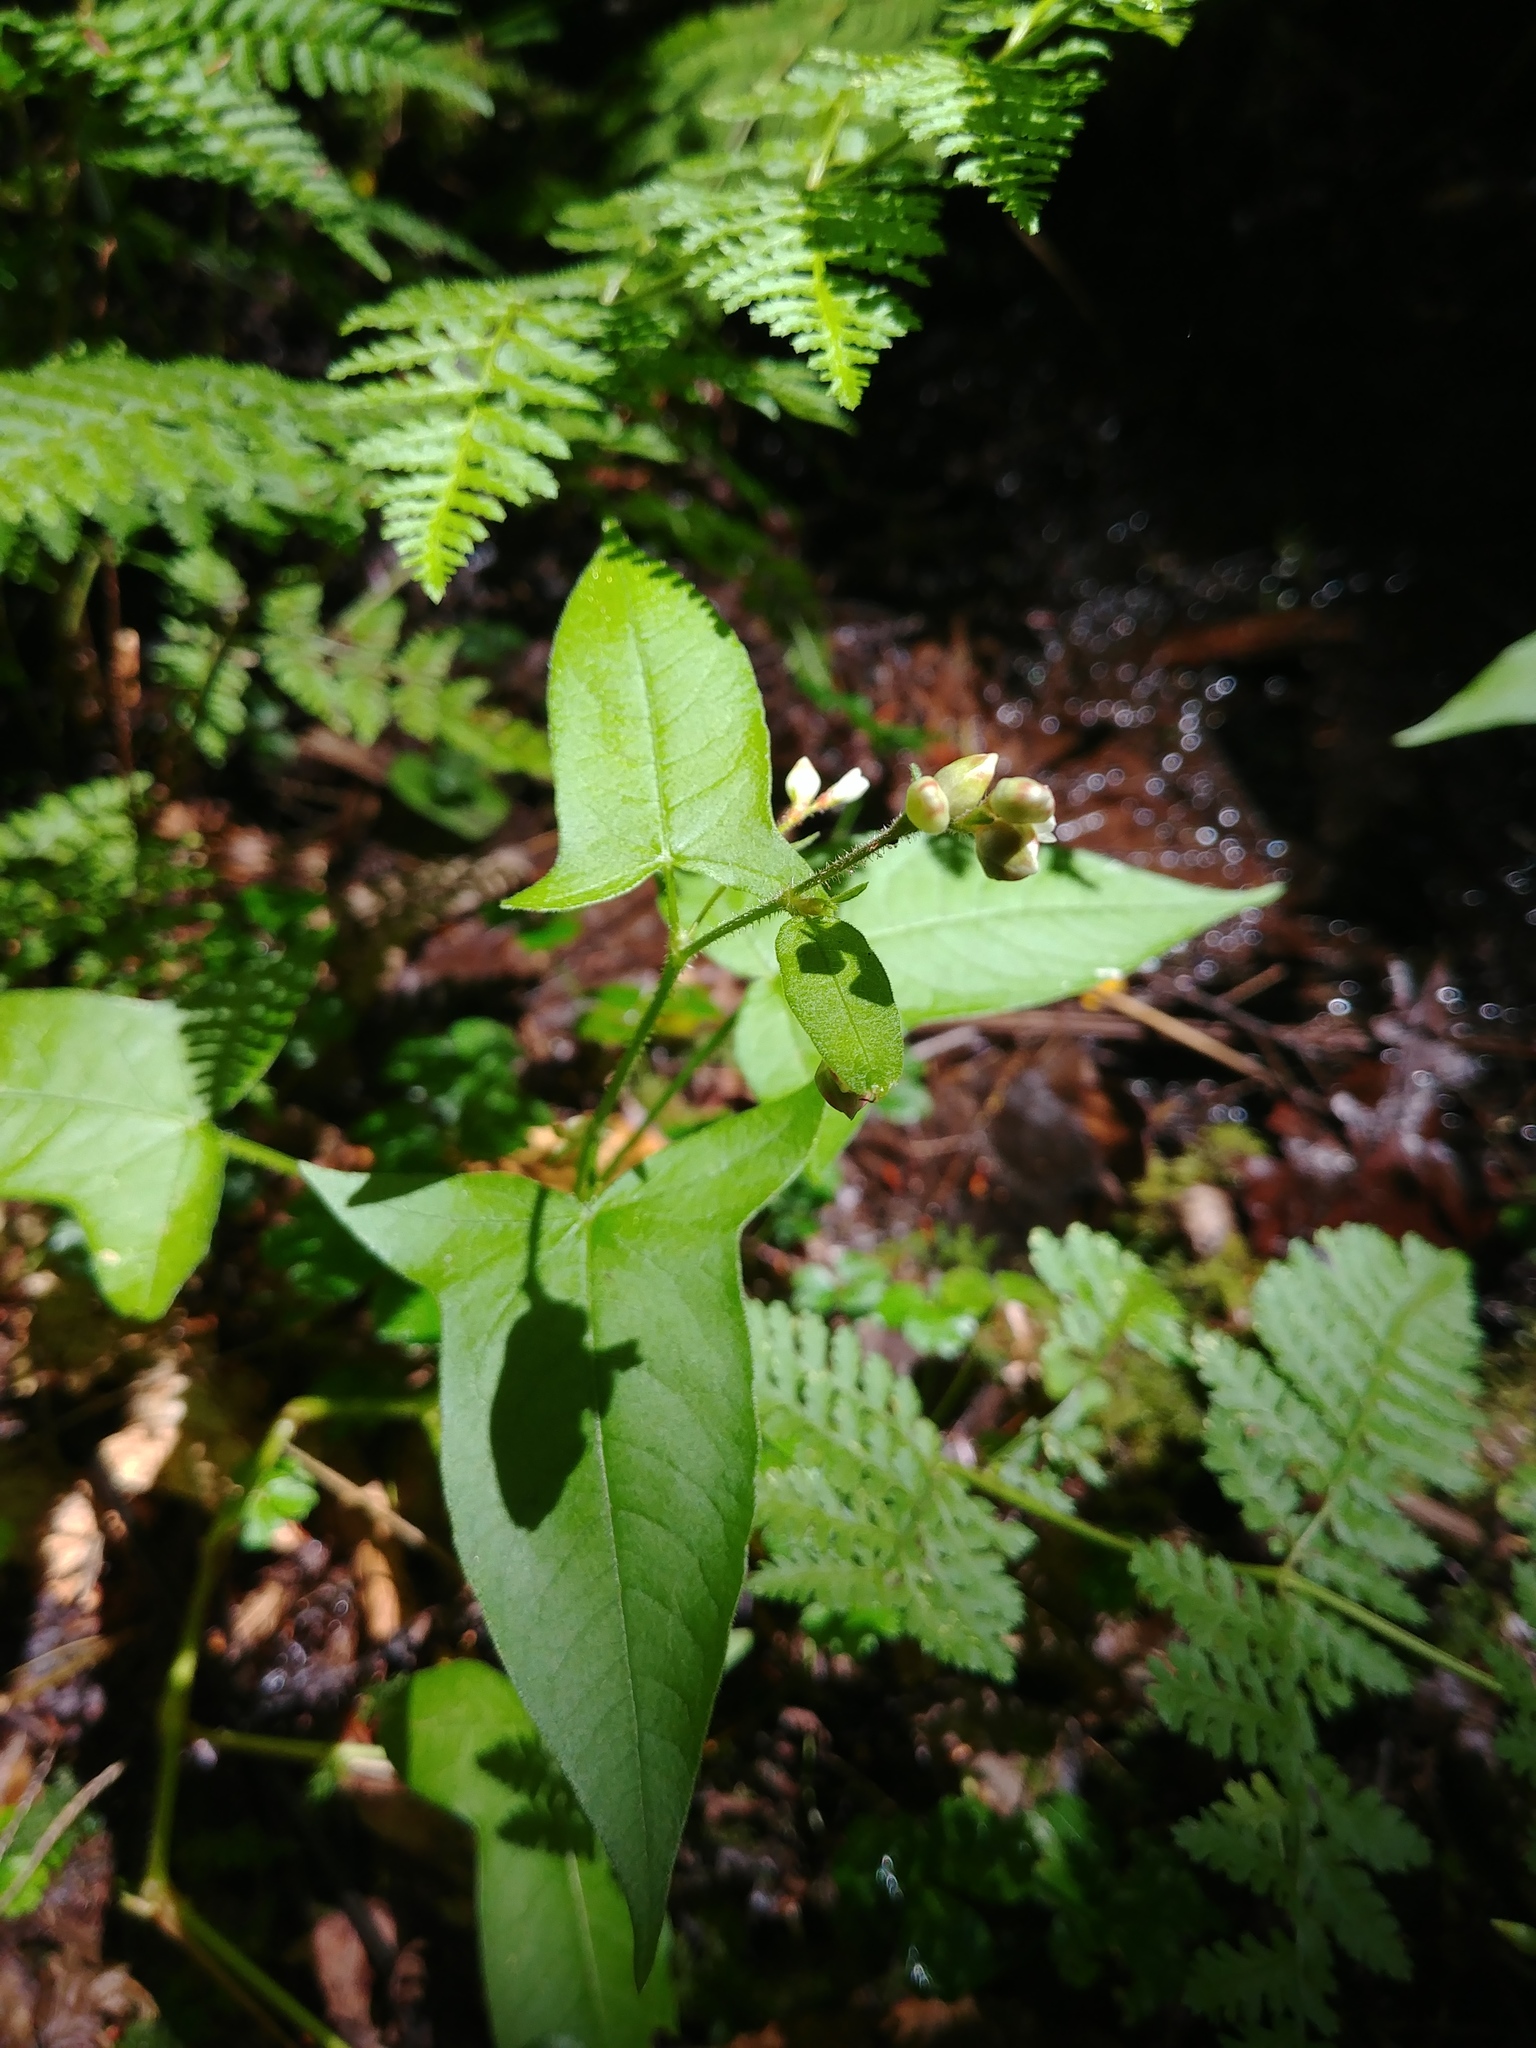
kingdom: Plantae
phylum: Tracheophyta
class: Magnoliopsida
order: Caryophyllales
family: Polygonaceae
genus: Persicaria
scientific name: Persicaria arifolia
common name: Halberd-leaved tear-thumb
